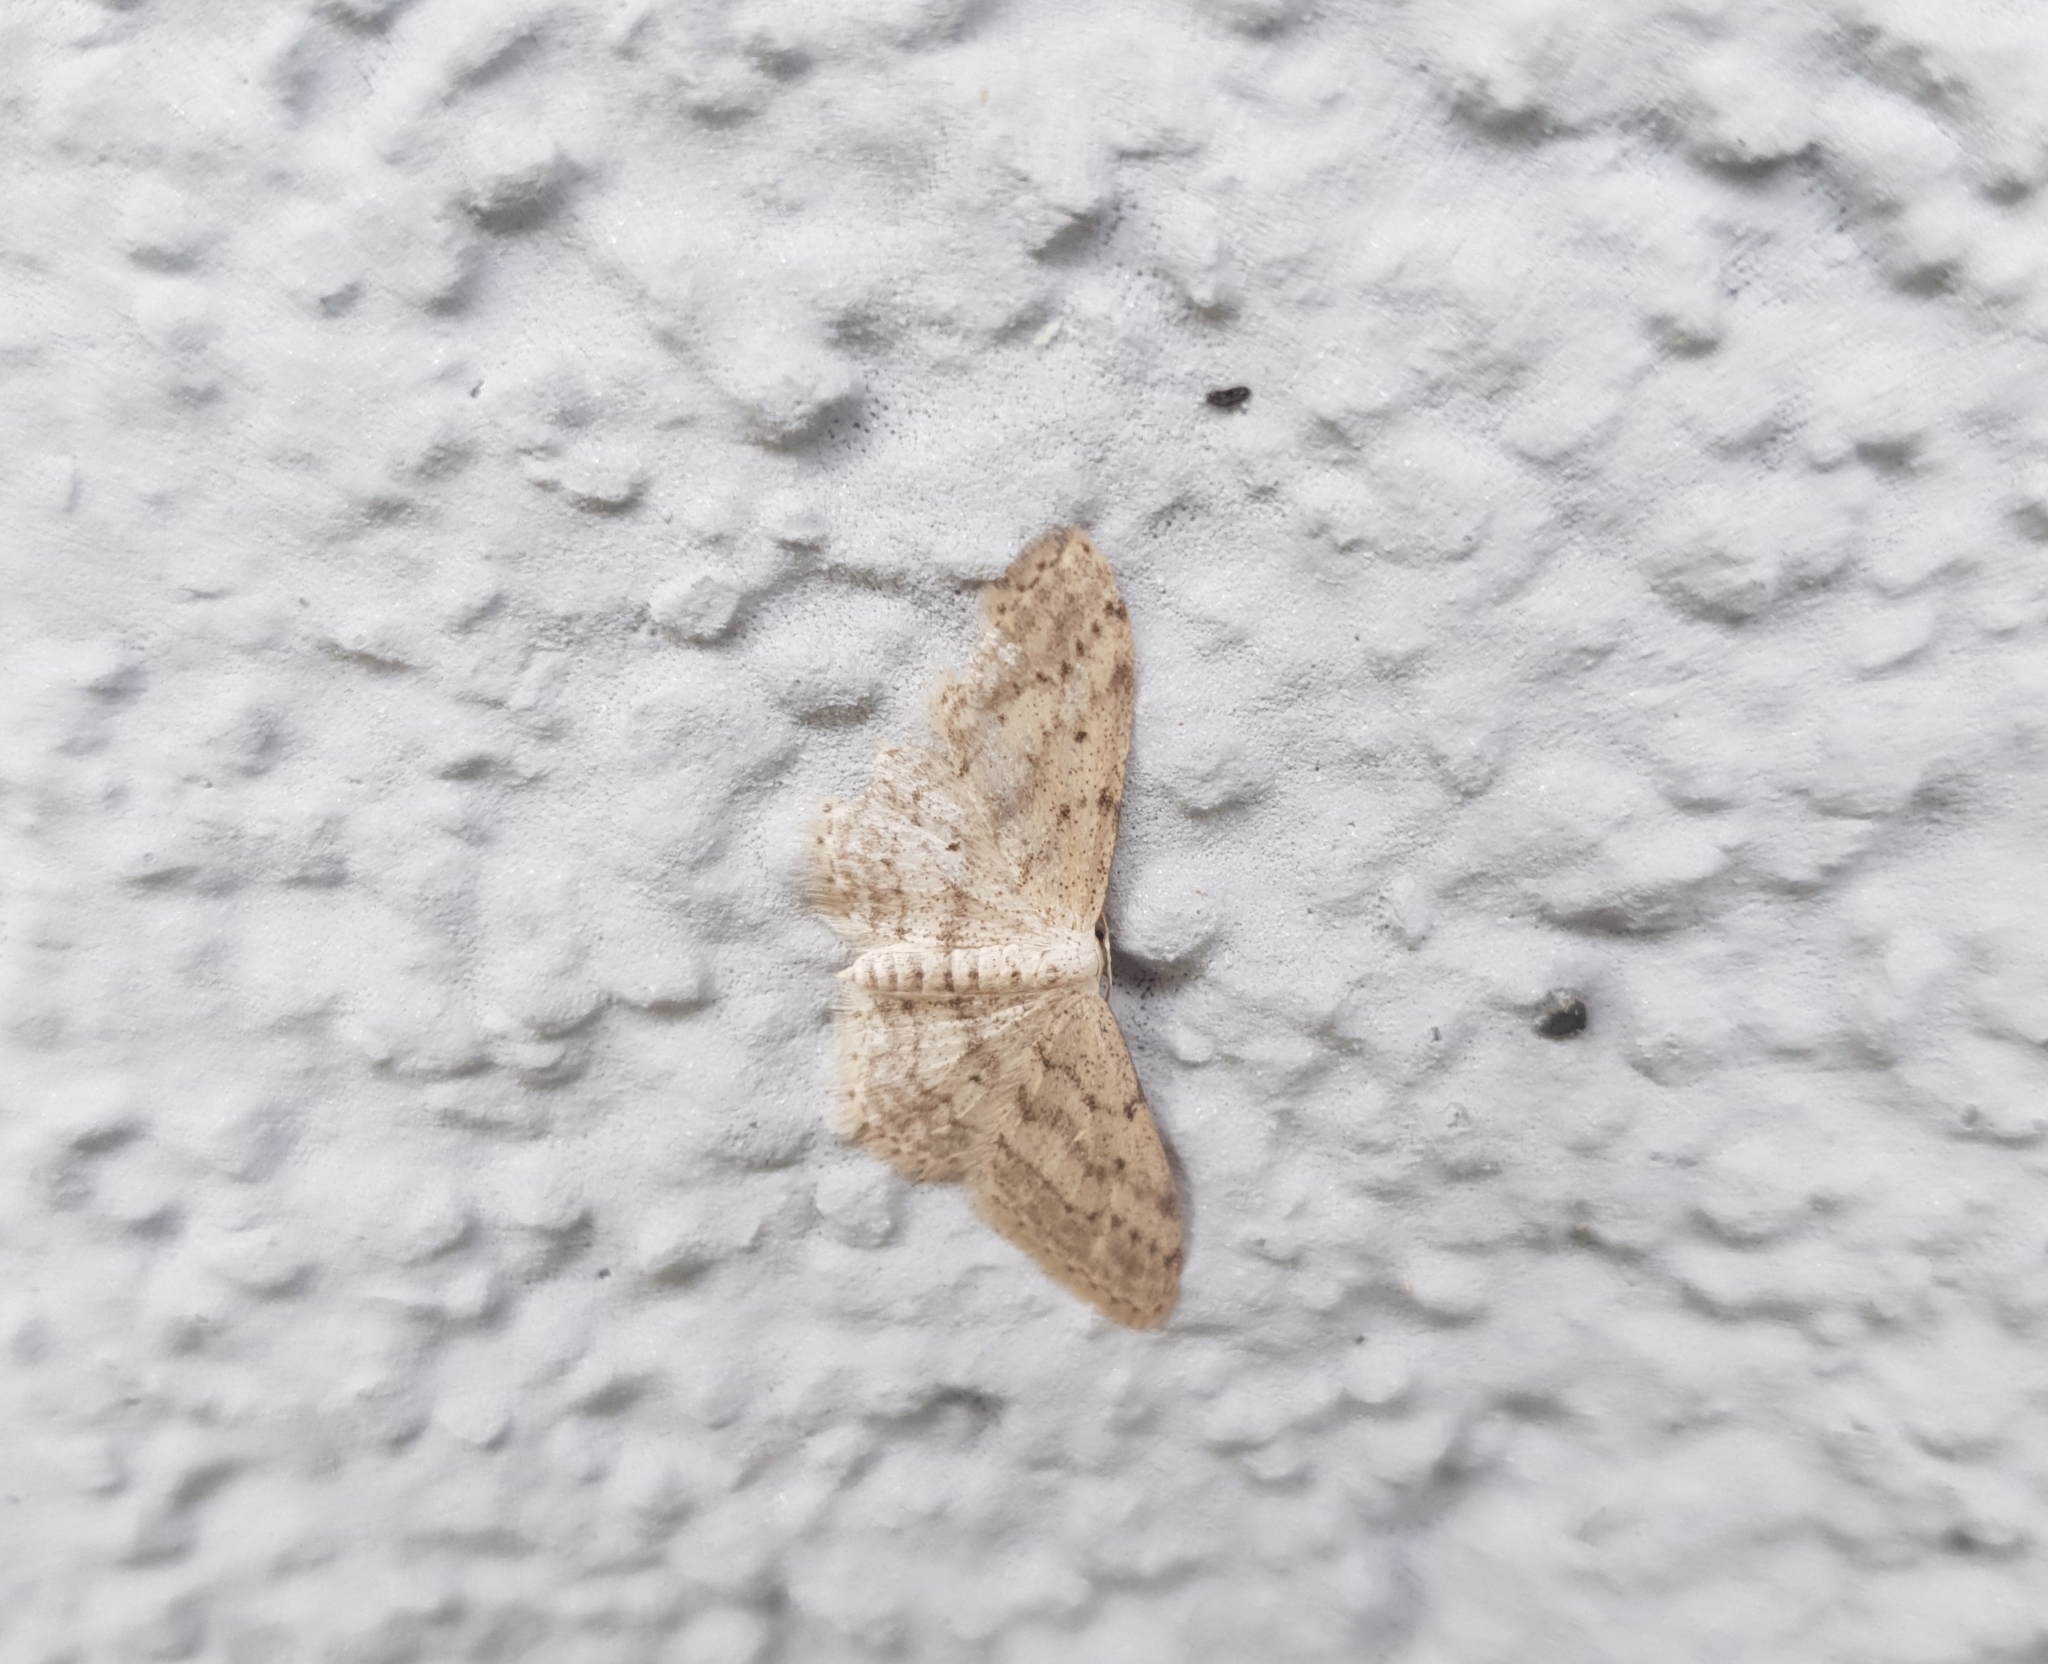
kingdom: Animalia
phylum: Arthropoda
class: Insecta
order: Lepidoptera
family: Geometridae
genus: Idaea
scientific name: Idaea seriata
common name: Small dusty wave
